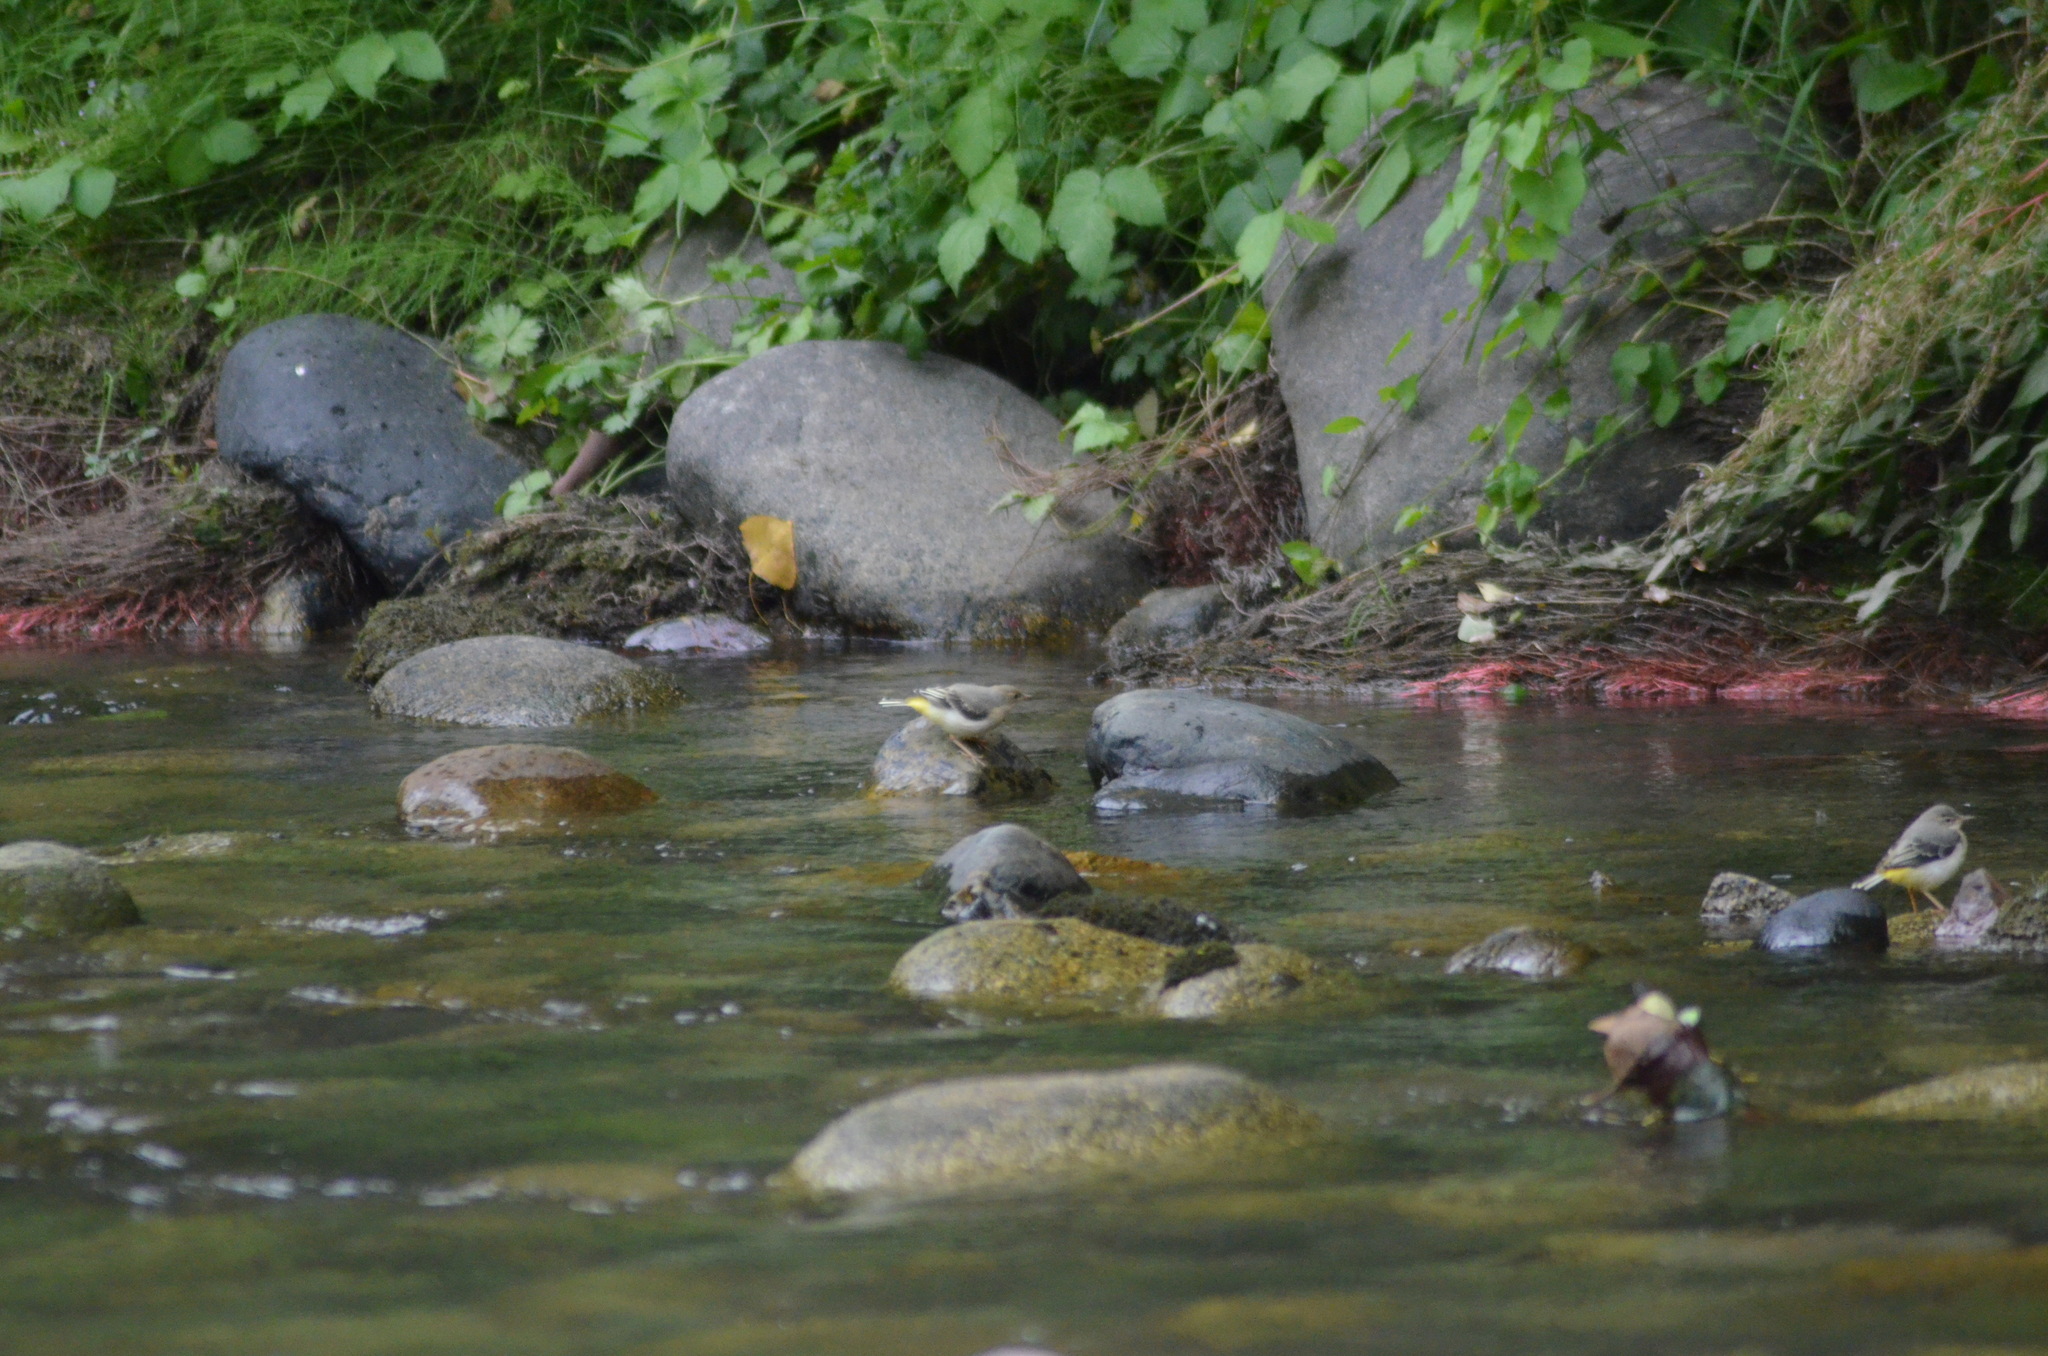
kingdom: Animalia
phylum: Chordata
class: Aves
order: Passeriformes
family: Motacillidae
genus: Motacilla
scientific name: Motacilla cinerea
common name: Grey wagtail
